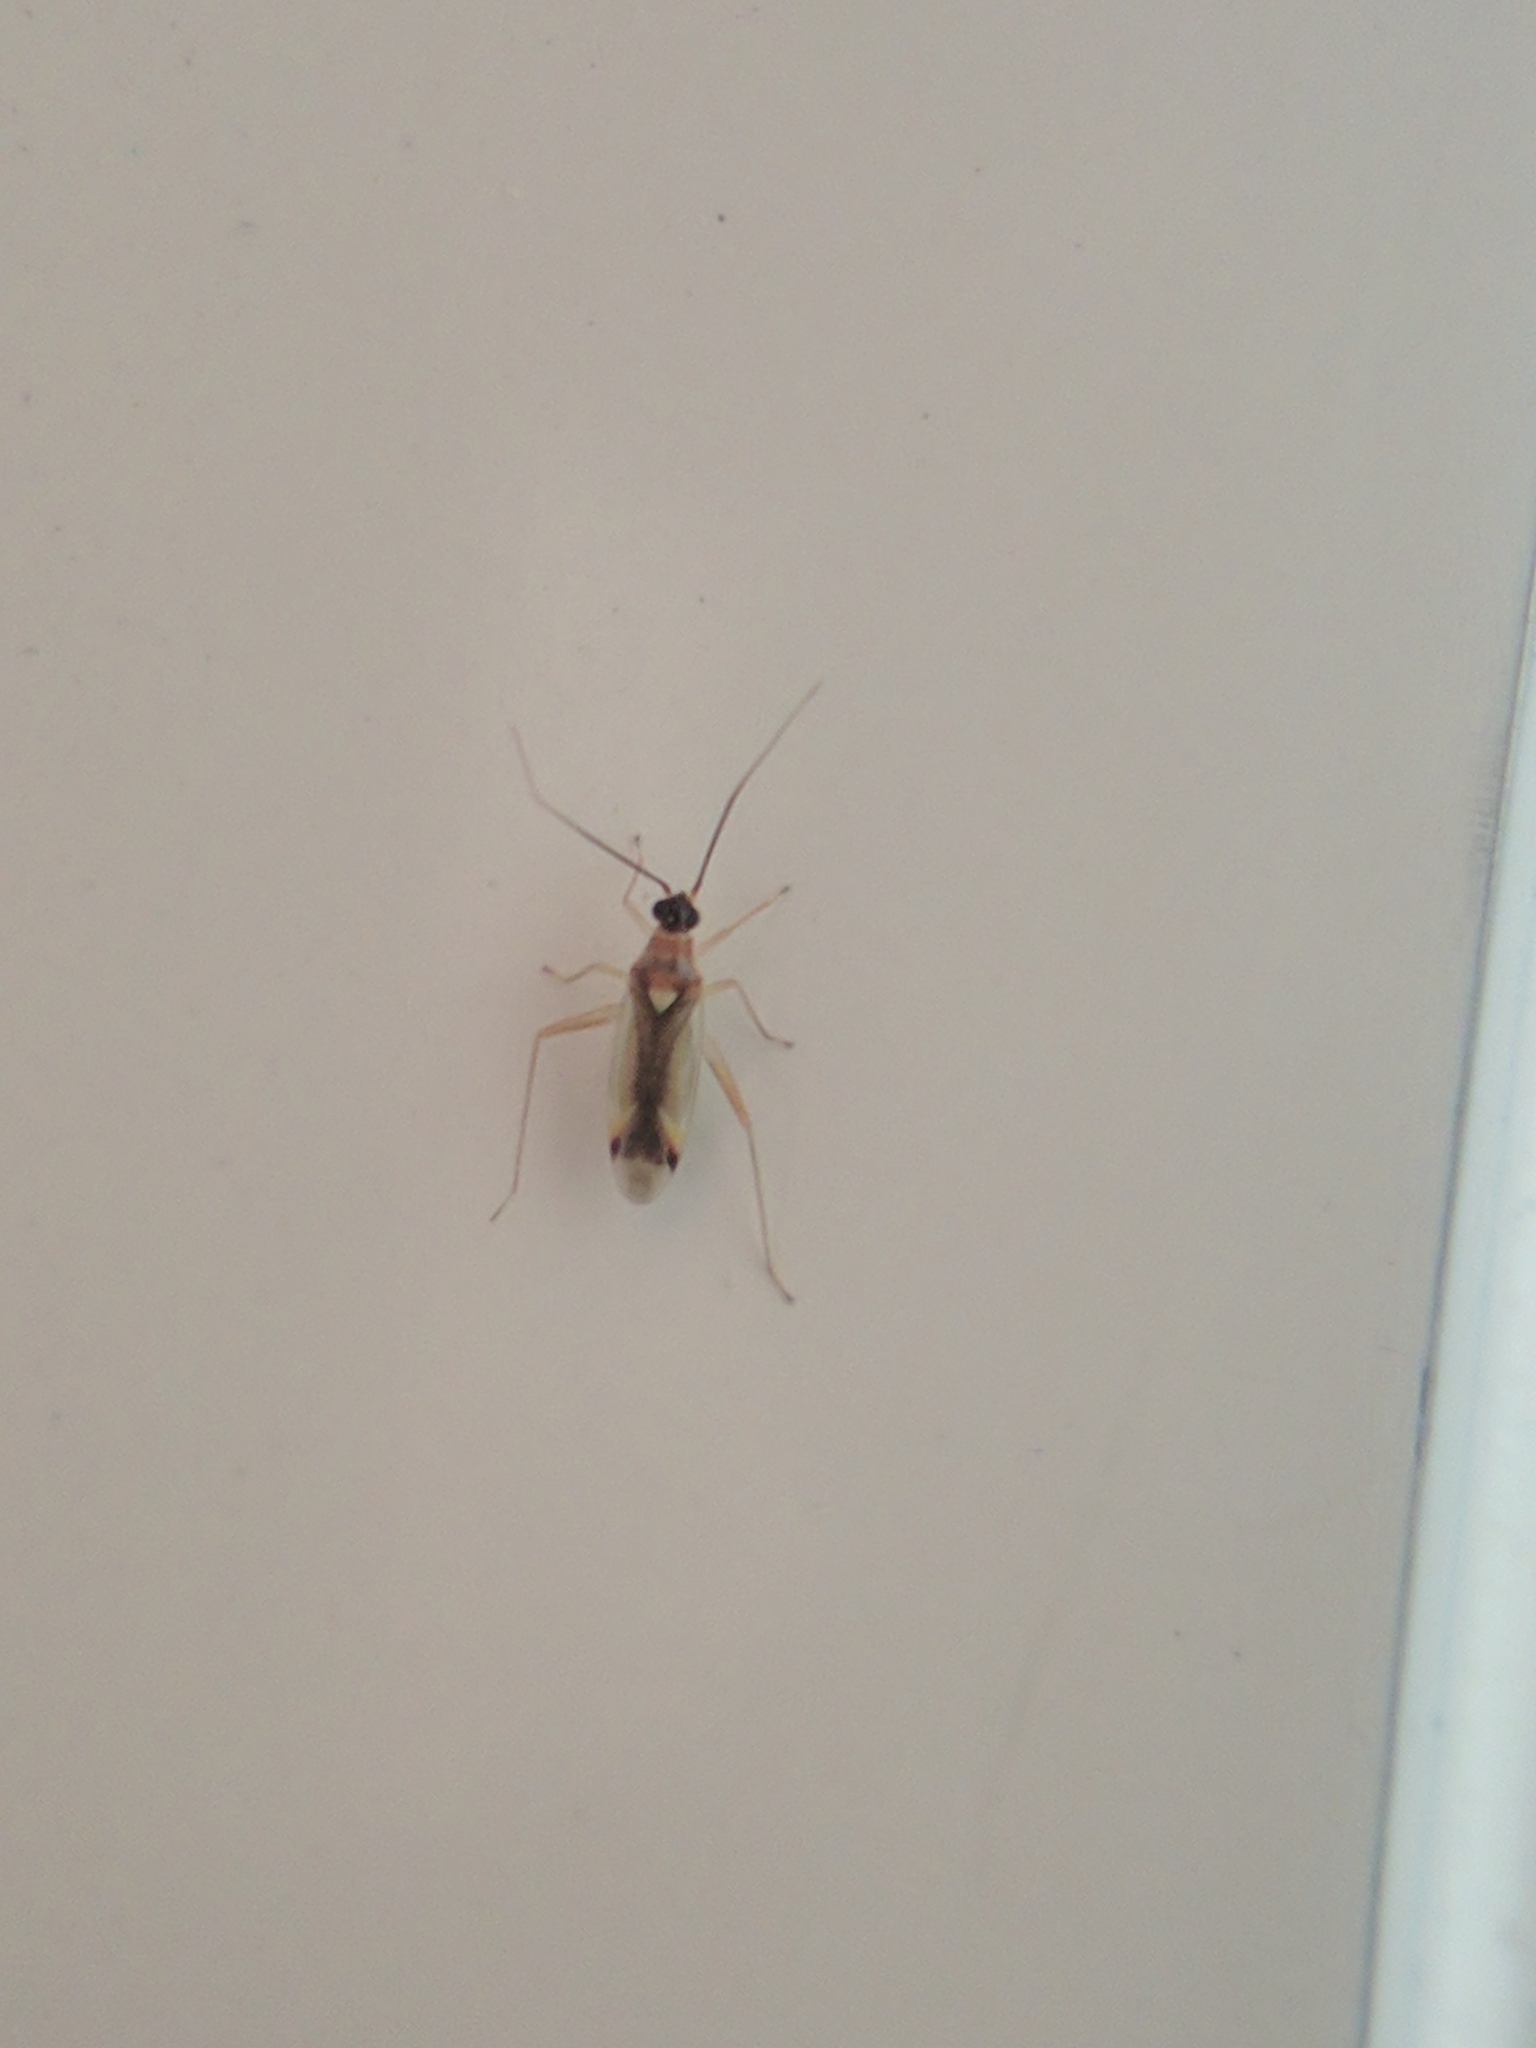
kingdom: Animalia
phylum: Arthropoda
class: Insecta
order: Hemiptera
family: Miridae
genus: Campyloneura
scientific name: Campyloneura virgula
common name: Predatory bug
